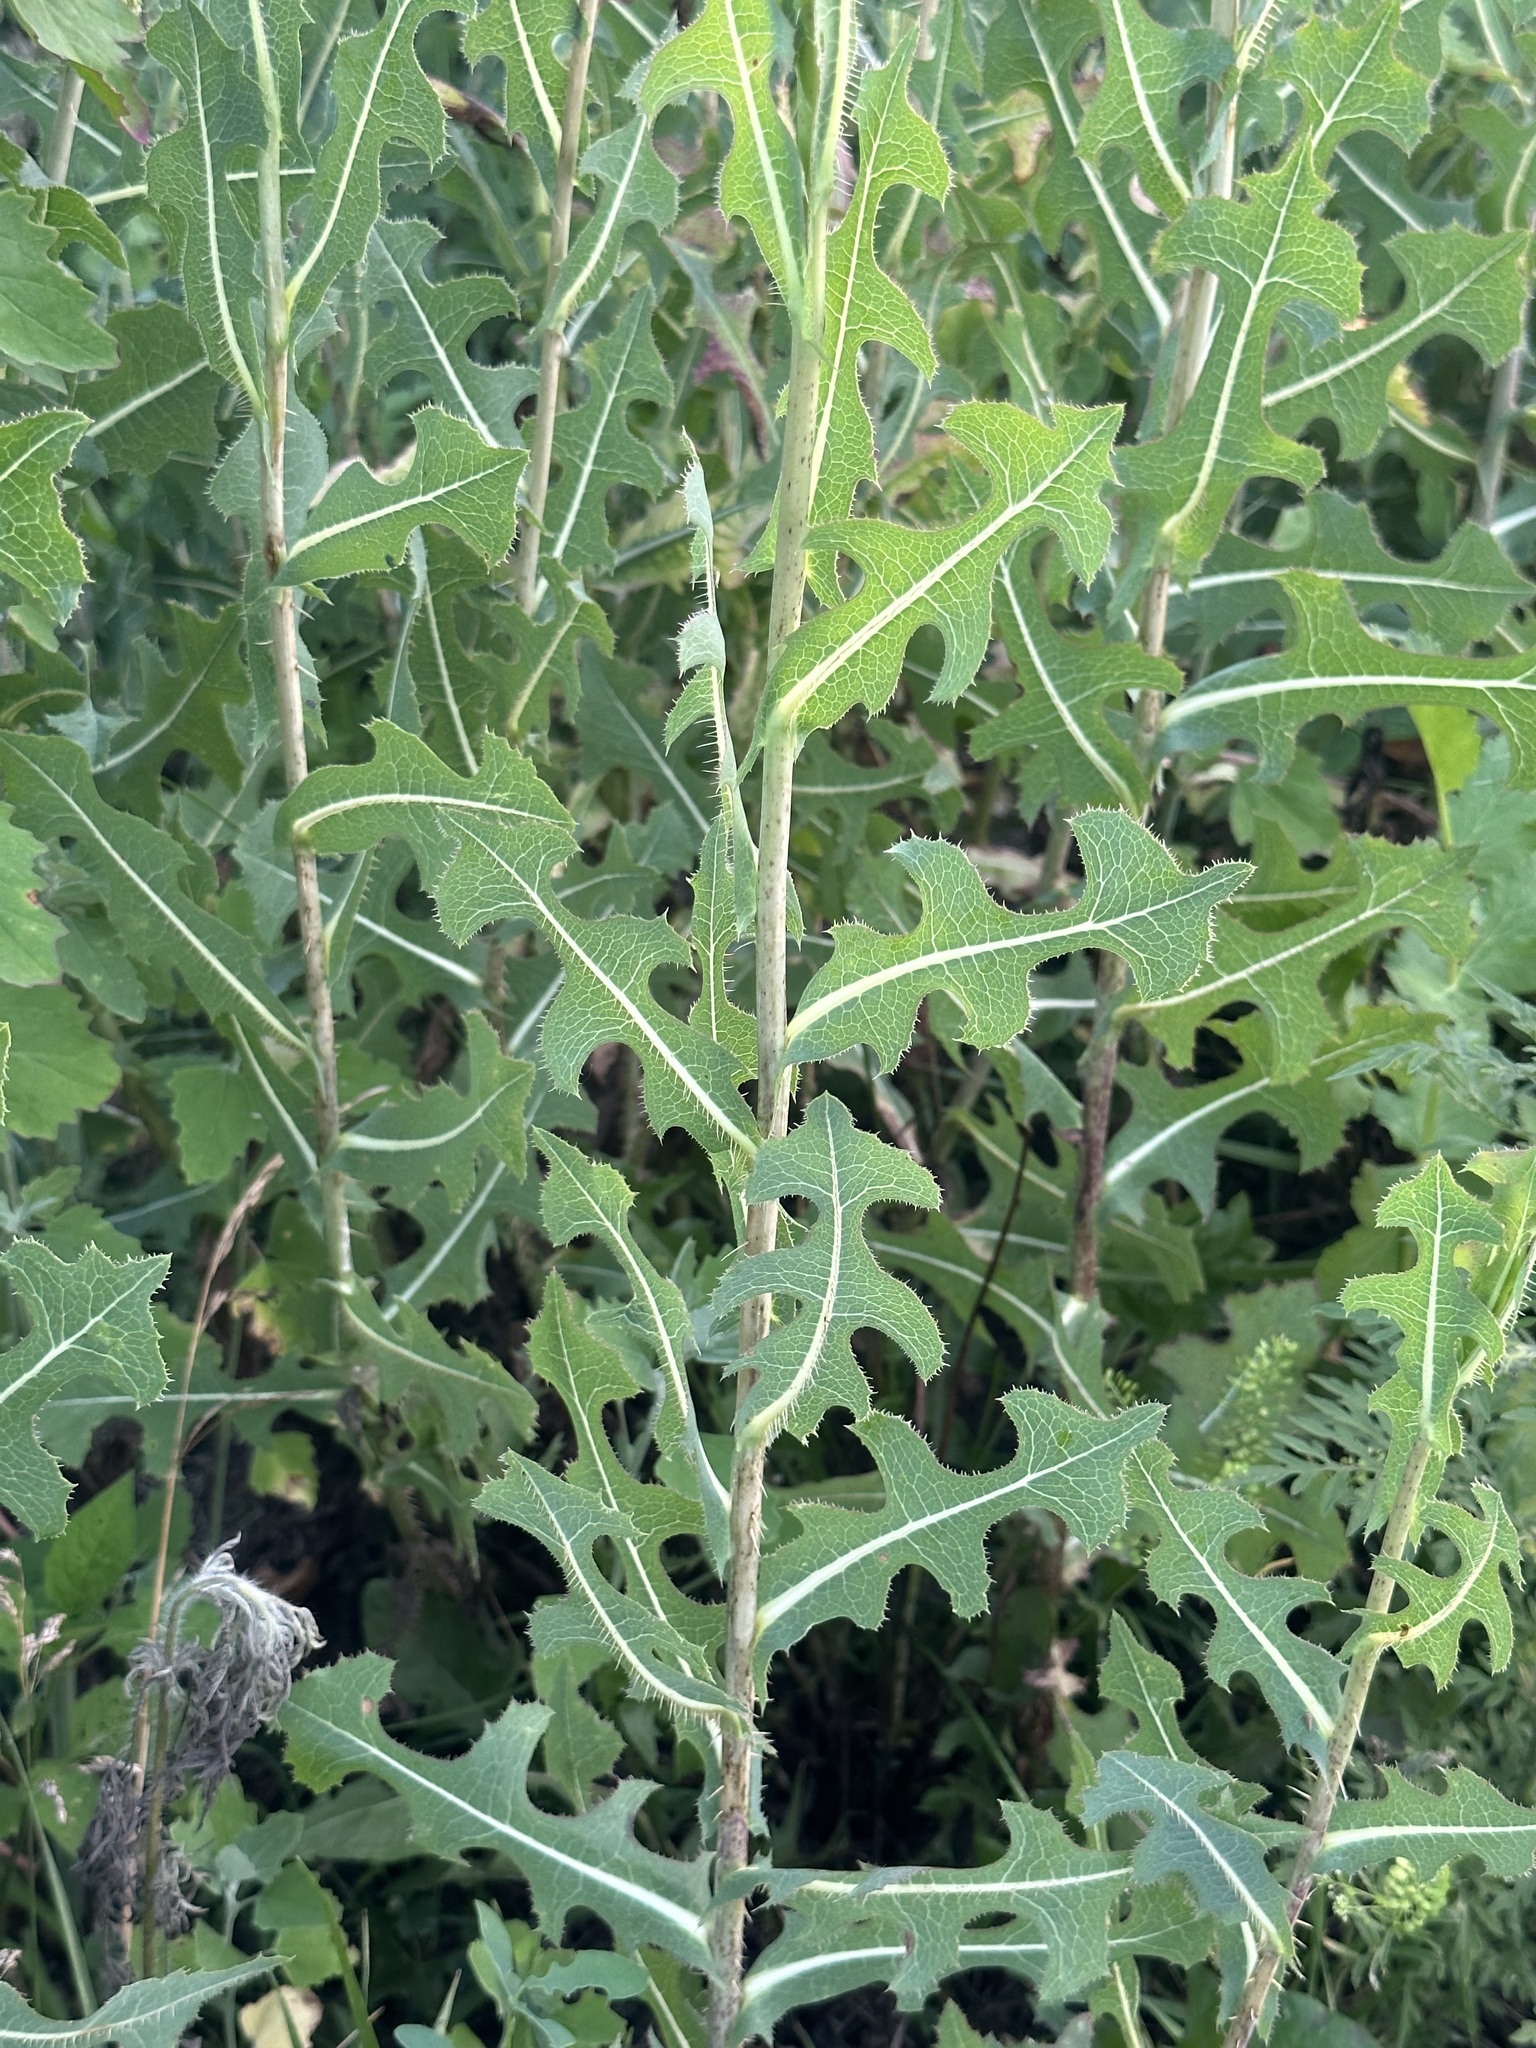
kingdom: Plantae
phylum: Tracheophyta
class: Magnoliopsida
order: Asterales
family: Asteraceae
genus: Lactuca
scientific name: Lactuca serriola
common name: Prickly lettuce
